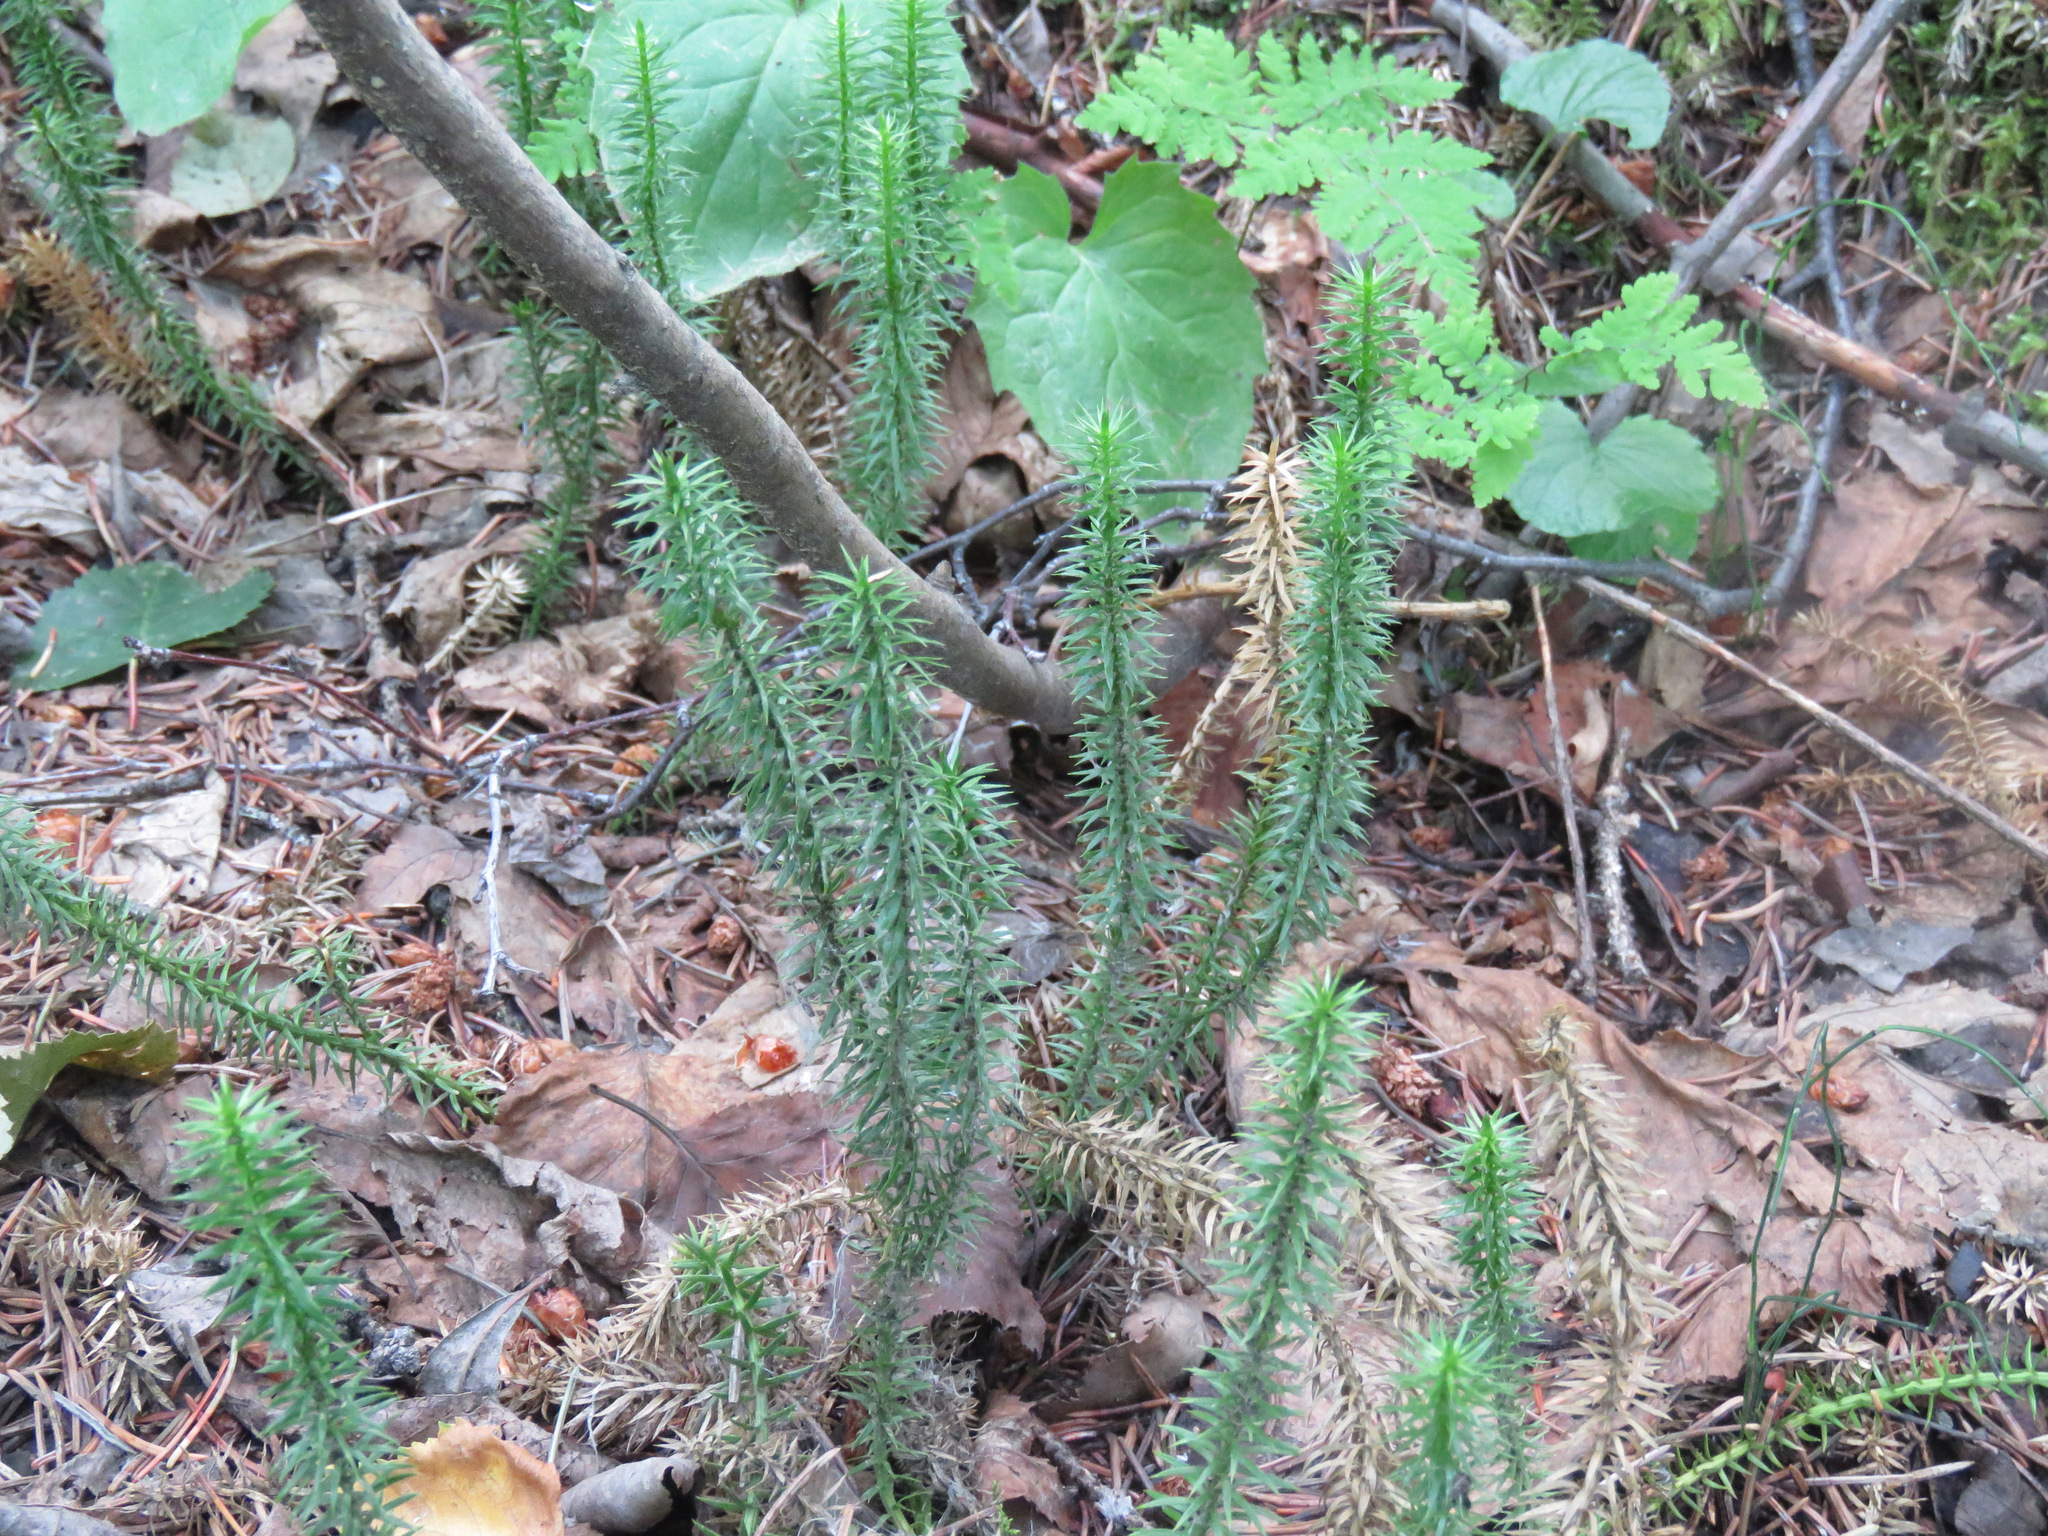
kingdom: Plantae
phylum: Tracheophyta
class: Lycopodiopsida
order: Lycopodiales
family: Lycopodiaceae
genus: Spinulum
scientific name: Spinulum annotinum
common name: Interrupted club-moss
